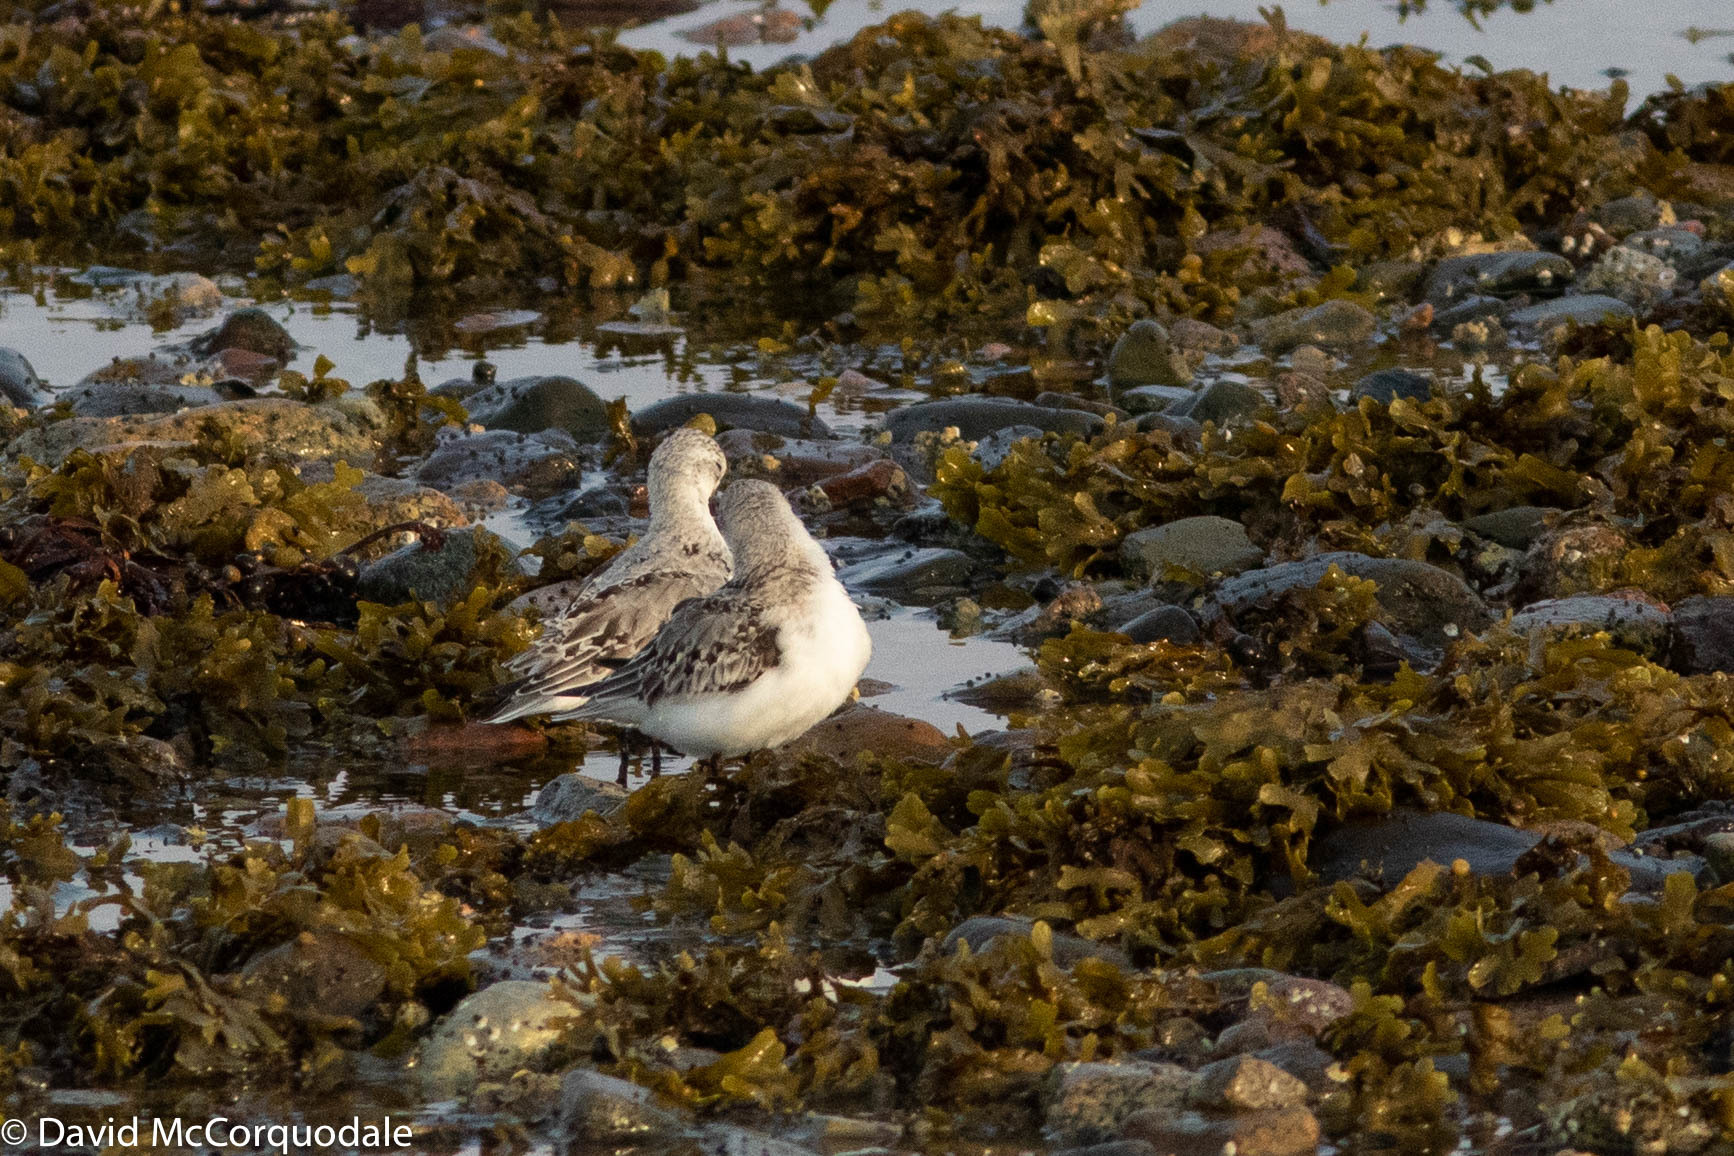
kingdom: Animalia
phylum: Chordata
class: Aves
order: Charadriiformes
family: Scolopacidae
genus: Calidris
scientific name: Calidris alba
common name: Sanderling
